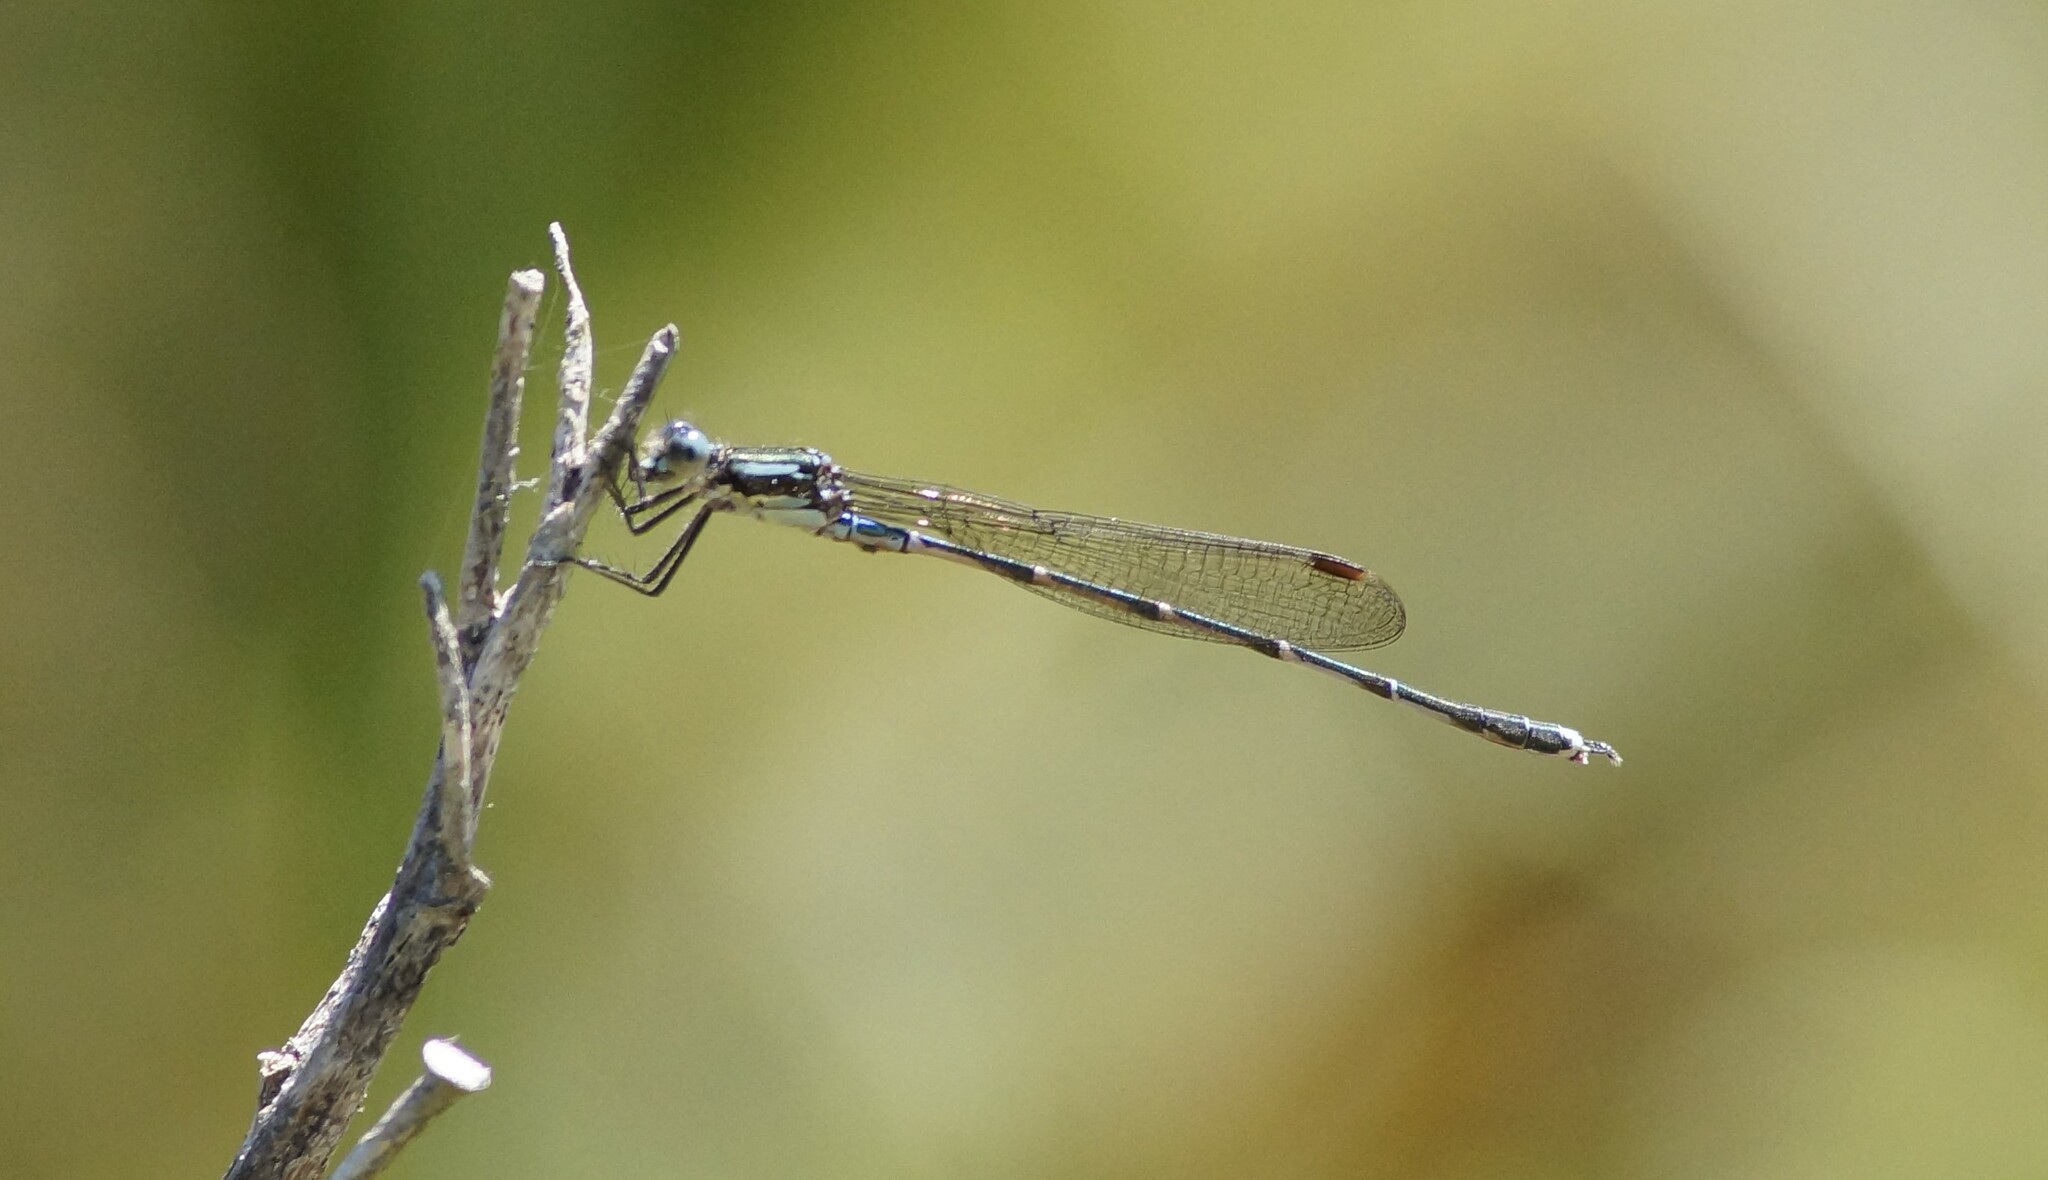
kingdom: Animalia
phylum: Arthropoda
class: Insecta
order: Odonata
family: Lestidae
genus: Austrolestes
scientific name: Austrolestes colensonis
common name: Blue damselfly
